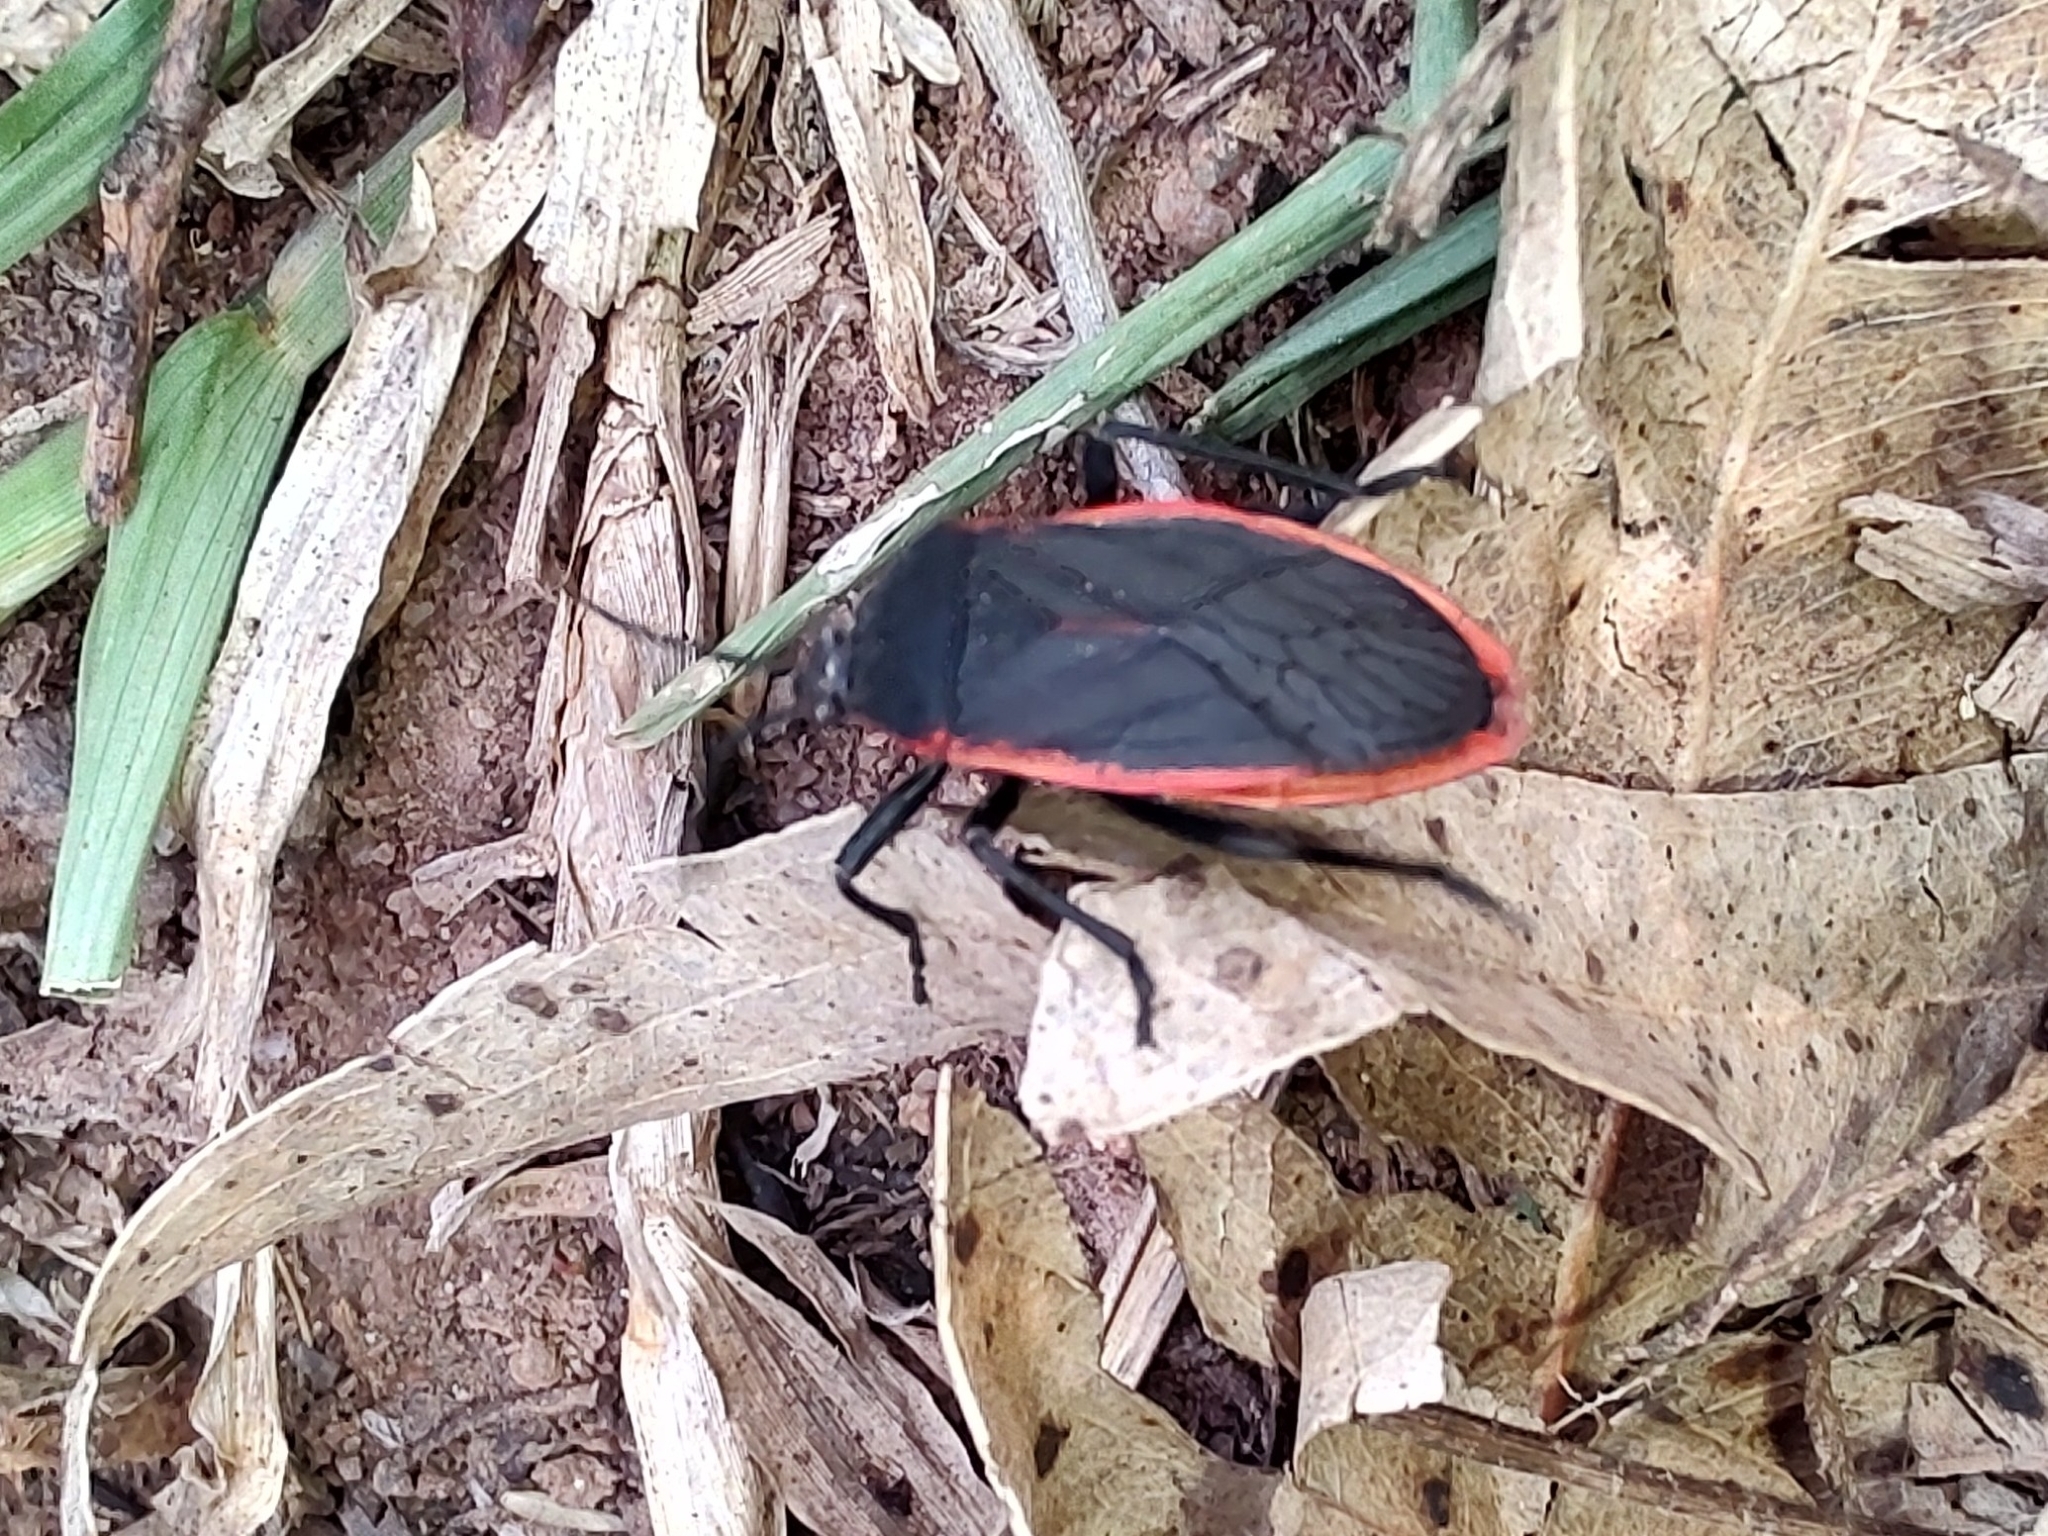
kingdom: Animalia
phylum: Arthropoda
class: Insecta
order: Hemiptera
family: Largidae
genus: Largus
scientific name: Largus rufipennis
